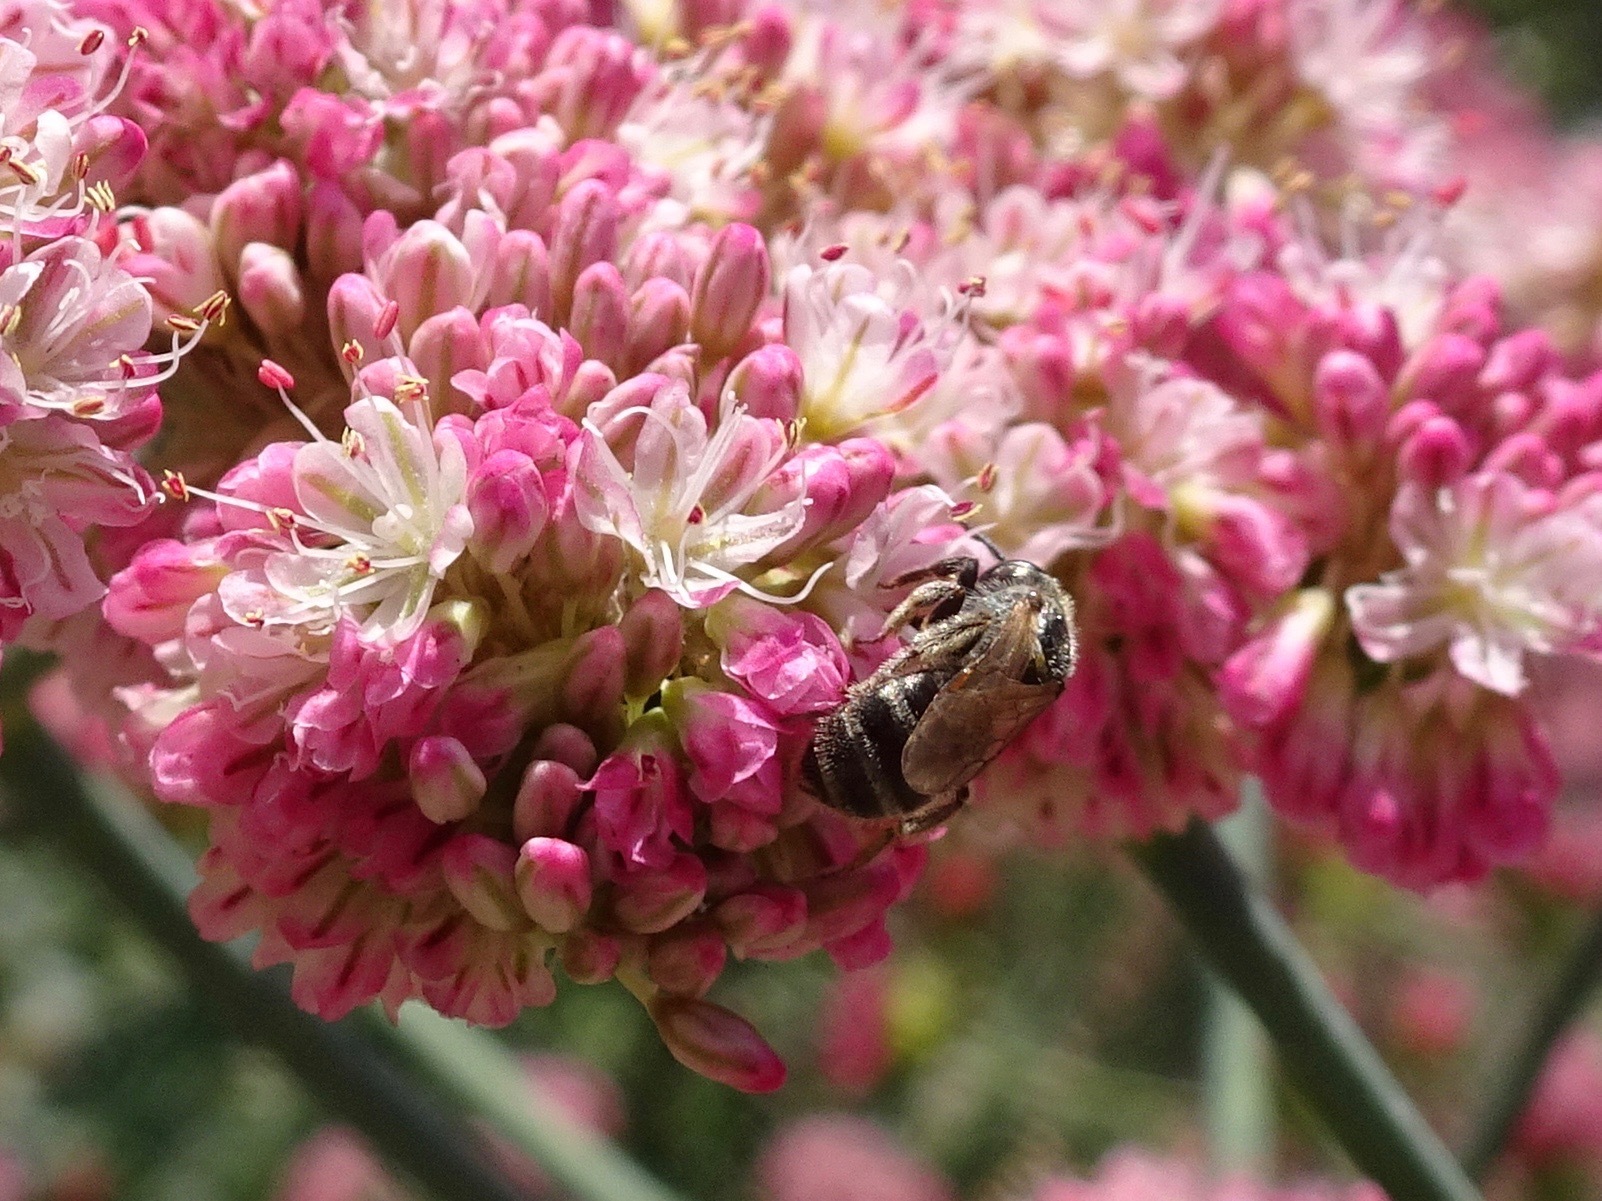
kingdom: Animalia
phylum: Arthropoda
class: Insecta
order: Hymenoptera
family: Halictidae
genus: Halictus
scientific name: Halictus tripartitus
